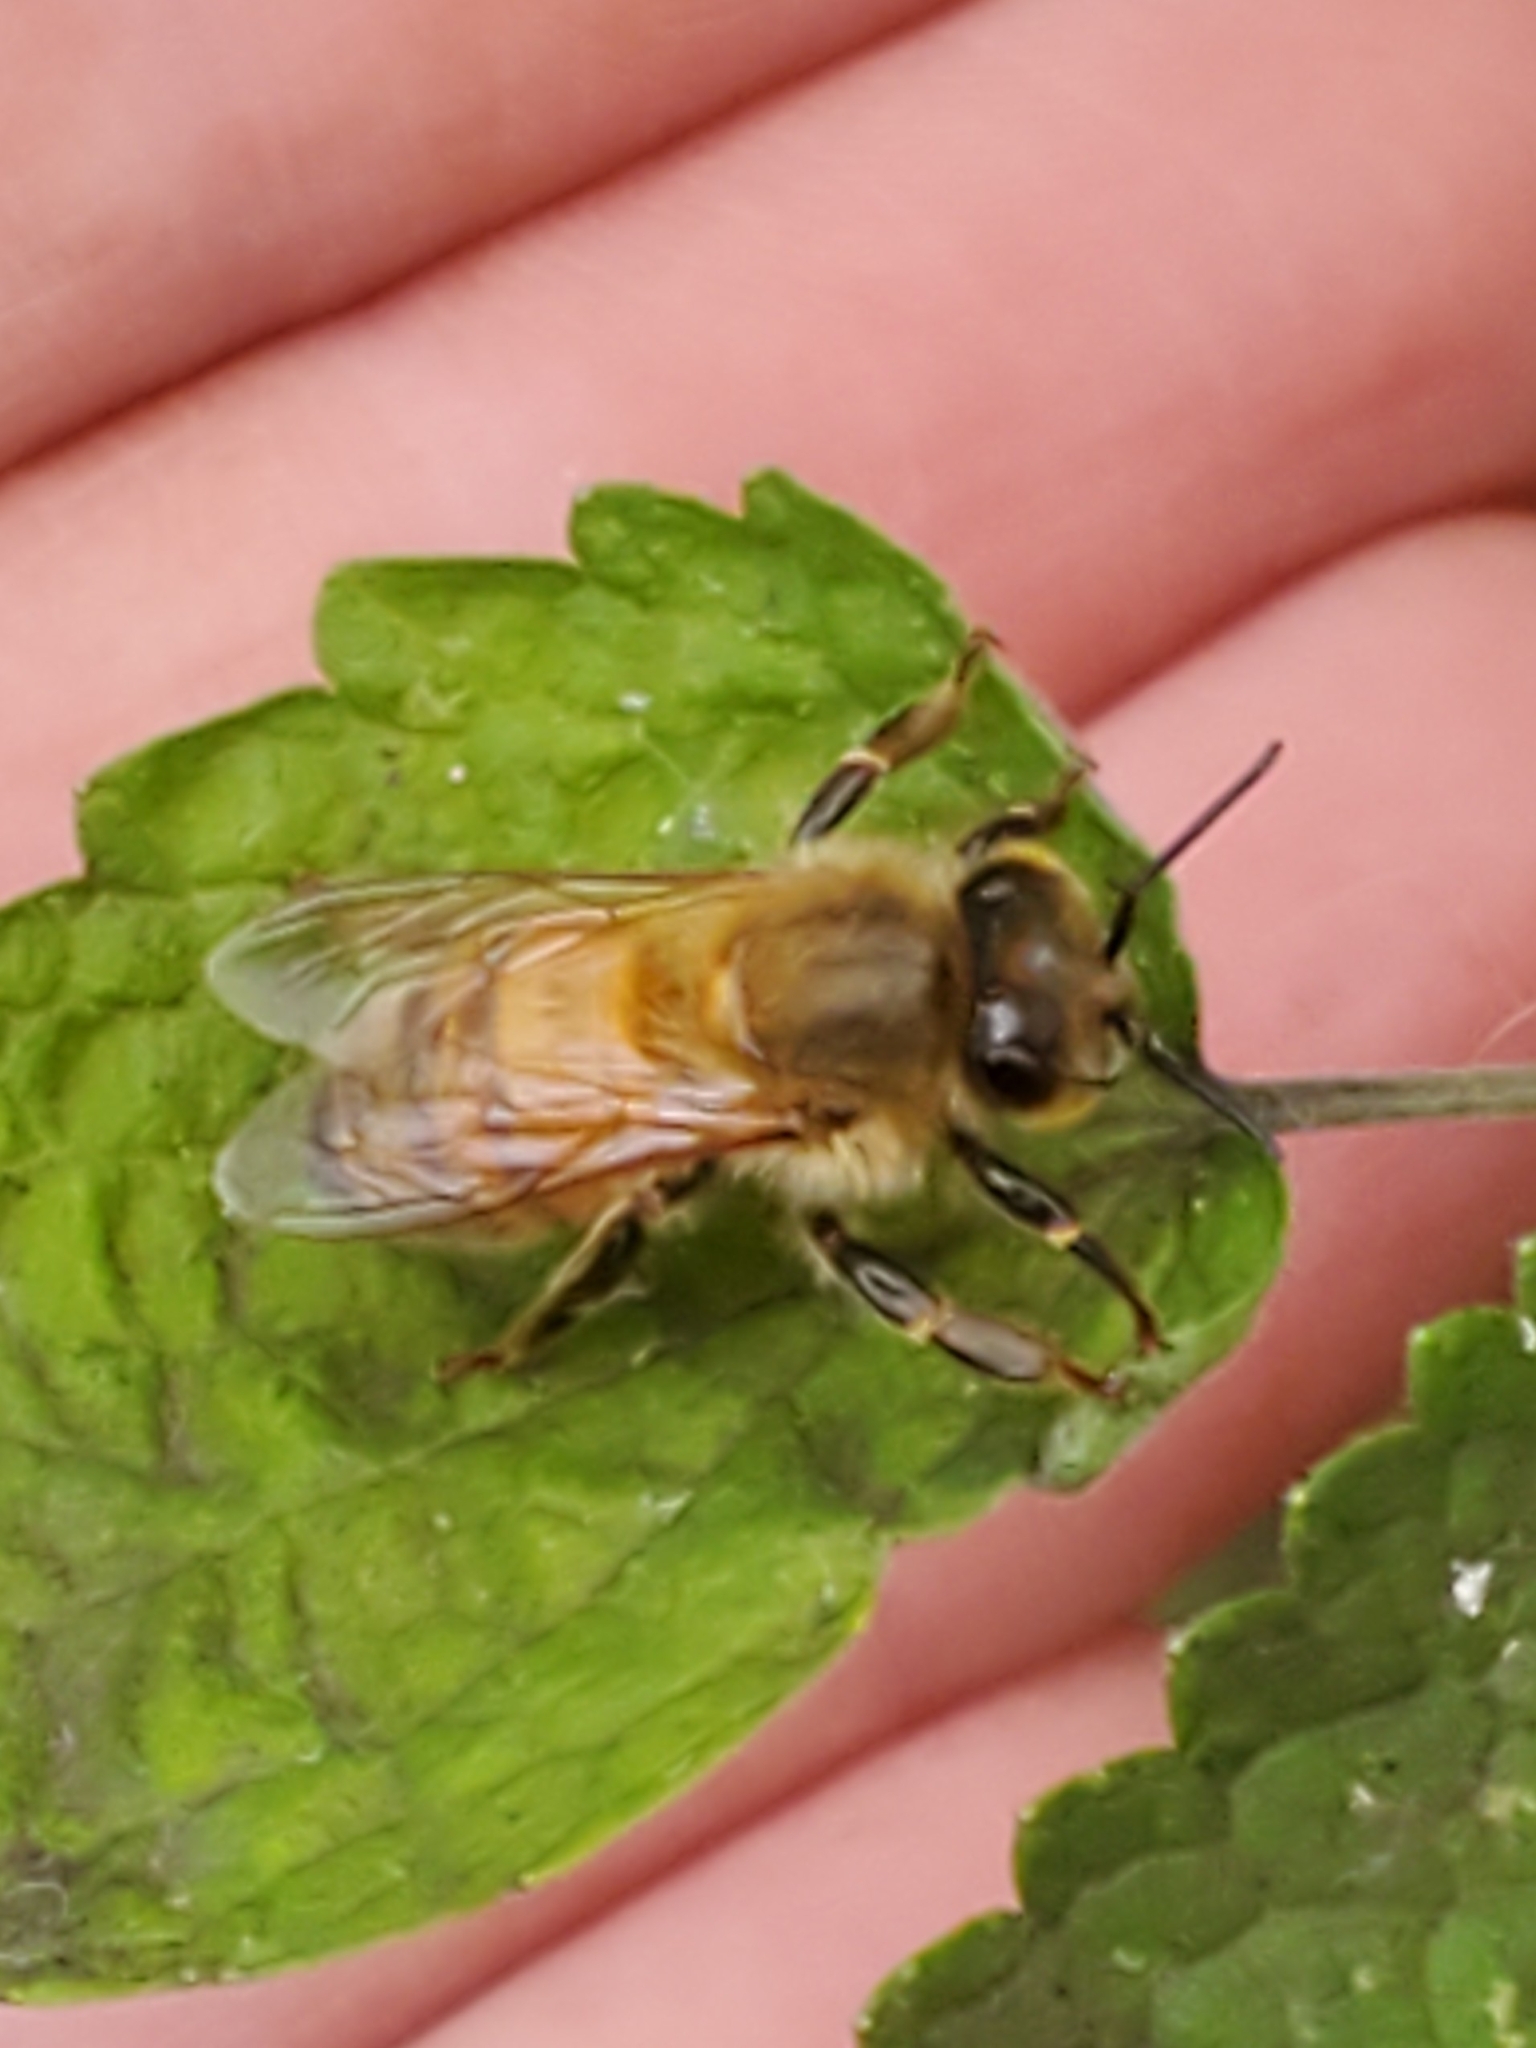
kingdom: Animalia
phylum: Arthropoda
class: Insecta
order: Hymenoptera
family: Apidae
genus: Apis
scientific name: Apis mellifera
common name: Honey bee
